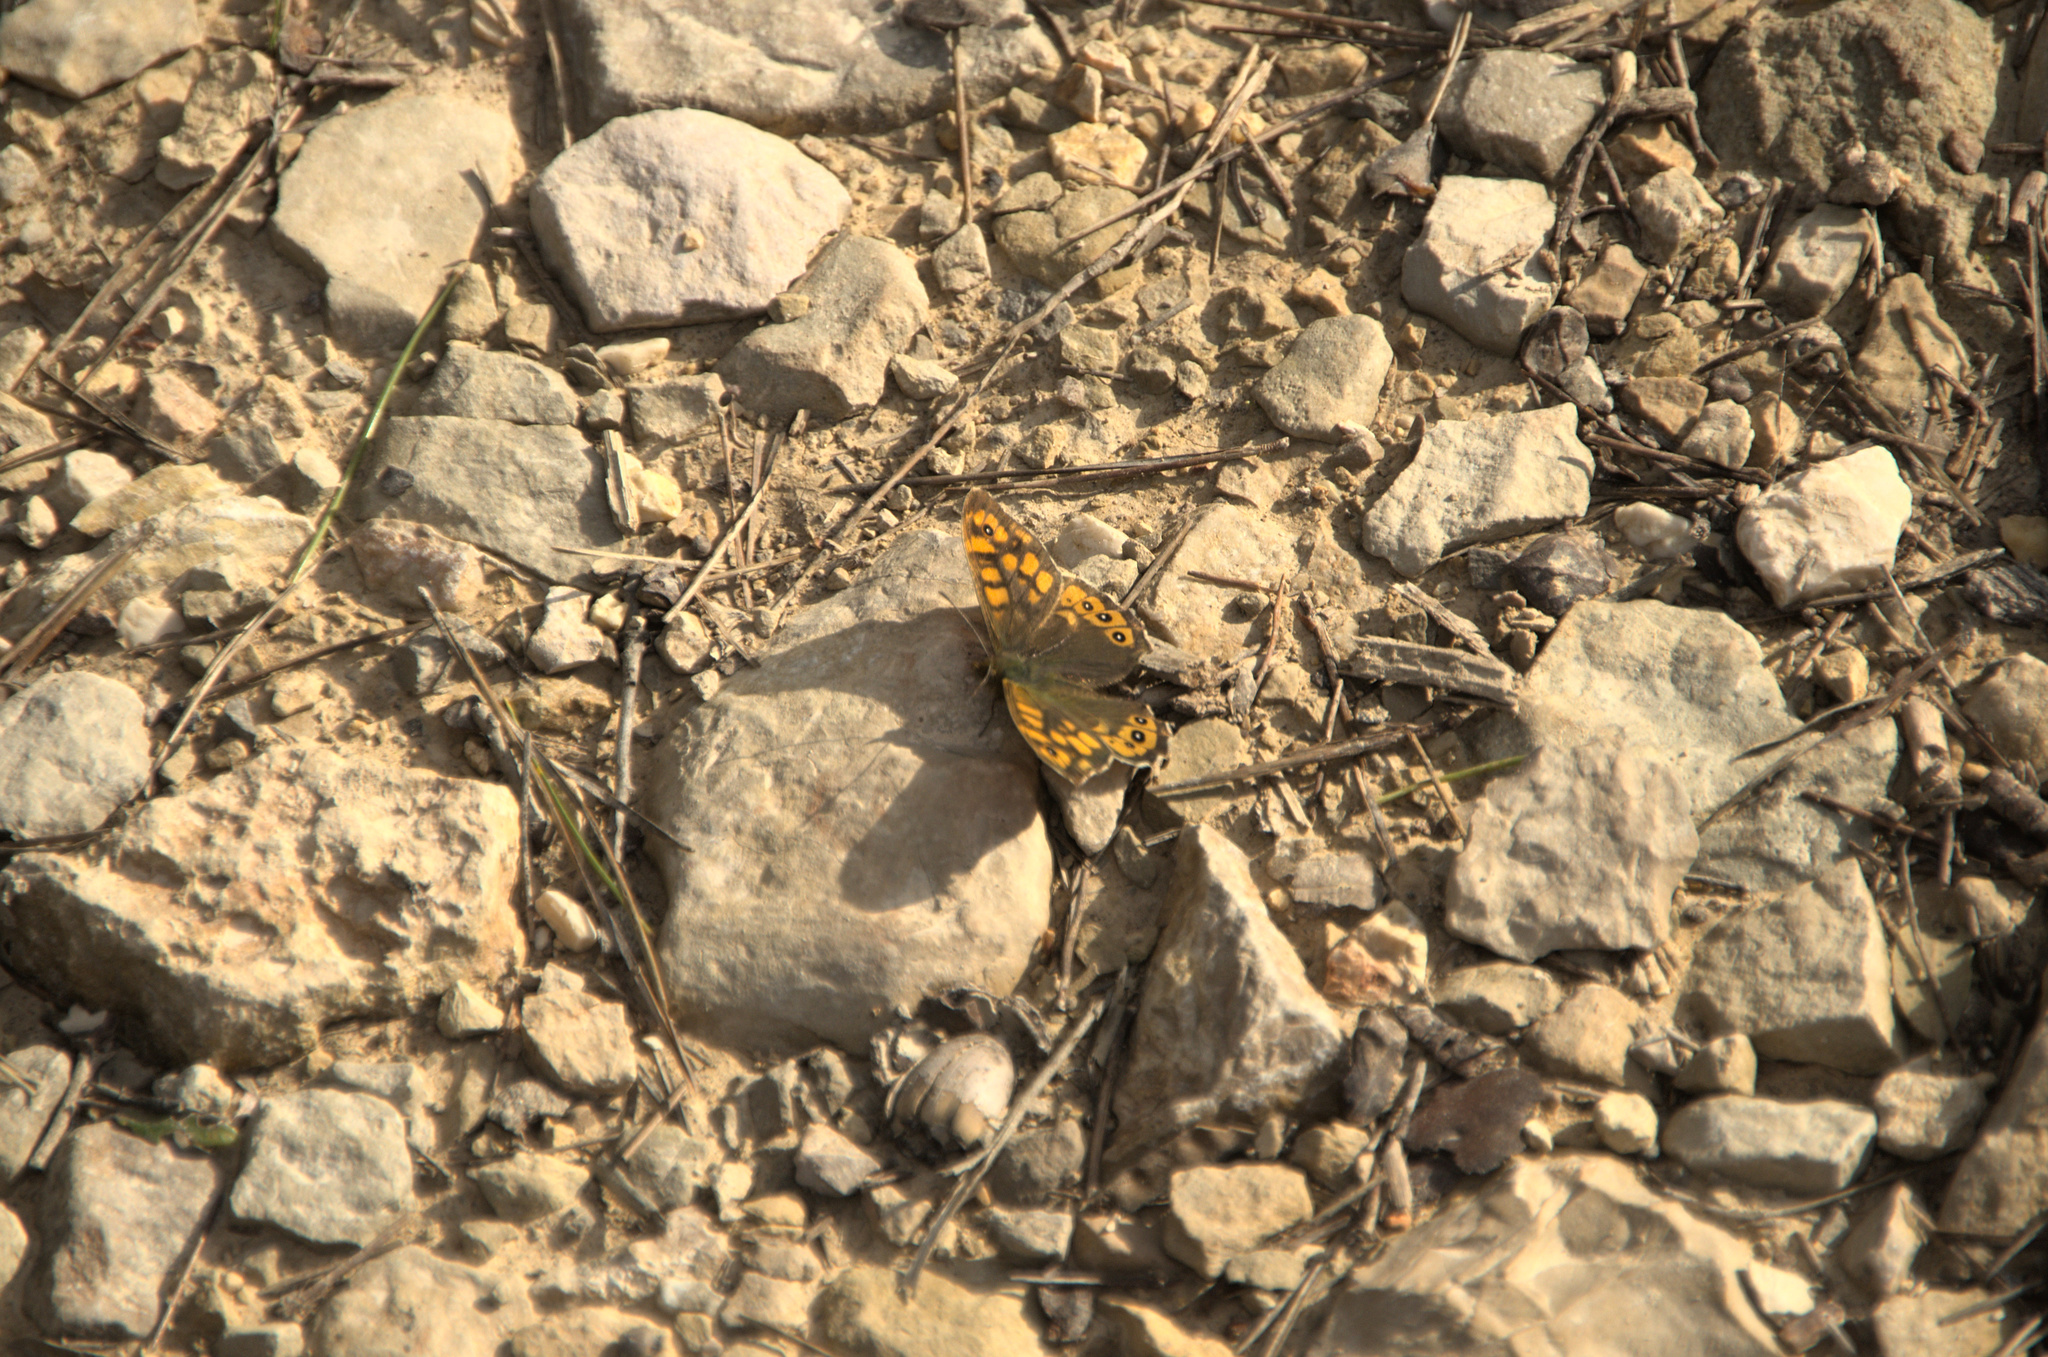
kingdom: Animalia
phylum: Arthropoda
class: Insecta
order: Lepidoptera
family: Nymphalidae
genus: Pararge
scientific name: Pararge aegeria
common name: Speckled wood
